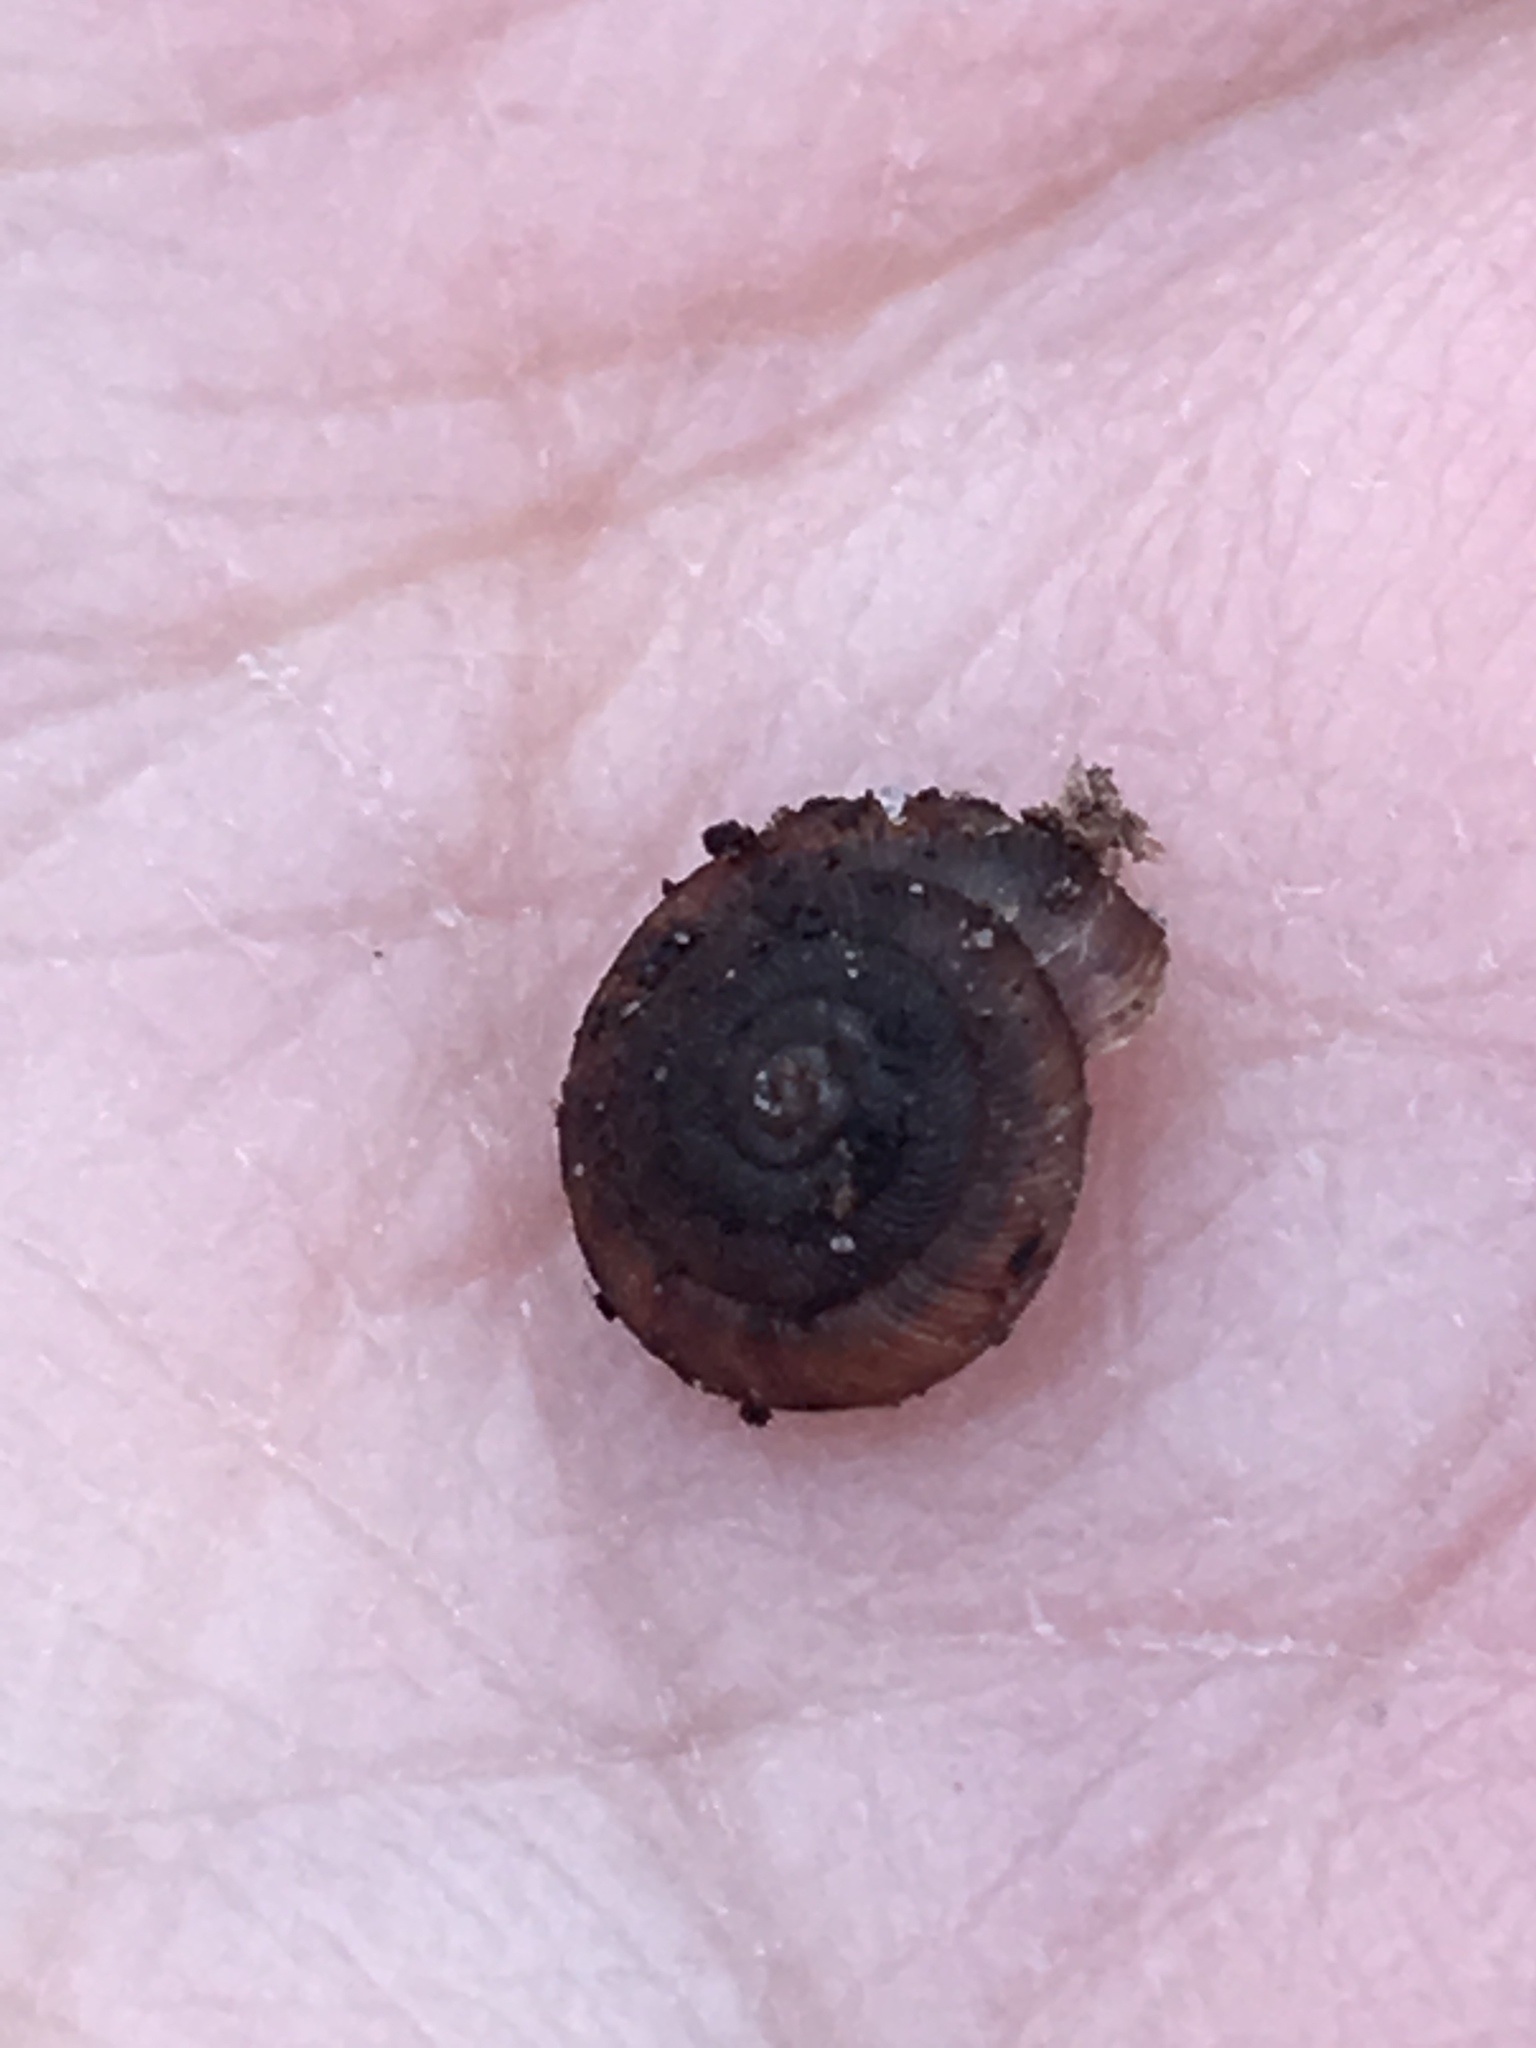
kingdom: Animalia
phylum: Mollusca
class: Gastropoda
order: Stylommatophora
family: Discidae
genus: Discus
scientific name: Discus rotundatus
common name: Rounded snail
